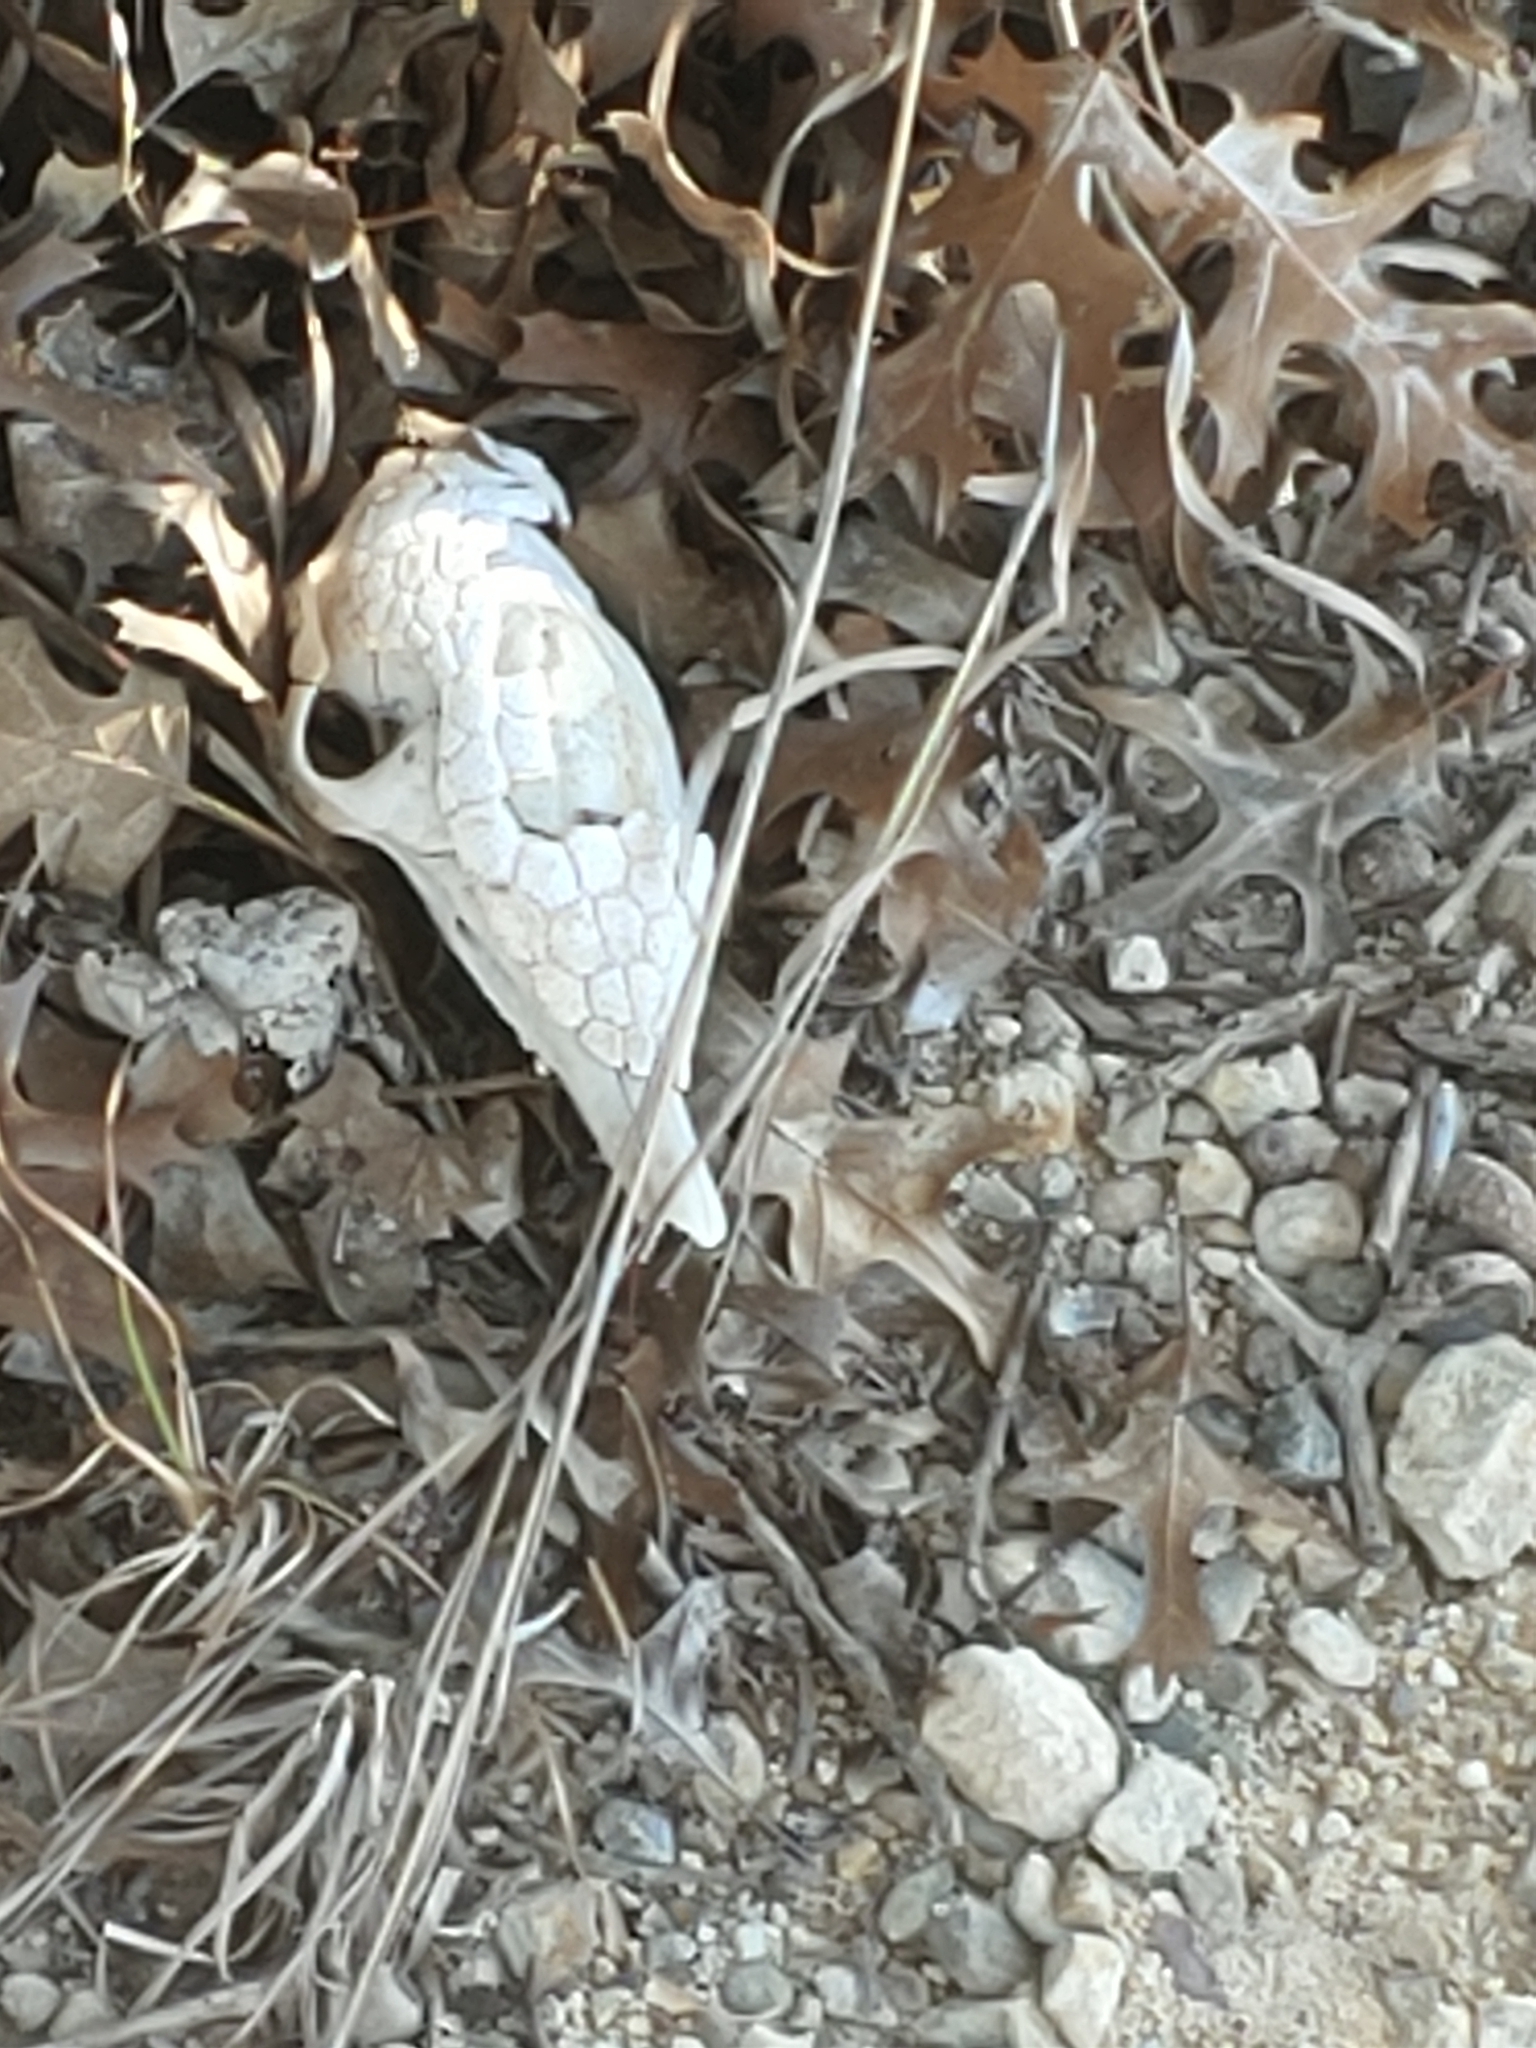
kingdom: Animalia
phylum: Chordata
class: Mammalia
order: Cingulata
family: Dasypodidae
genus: Dasypus
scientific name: Dasypus novemcinctus
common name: Nine-banded armadillo
